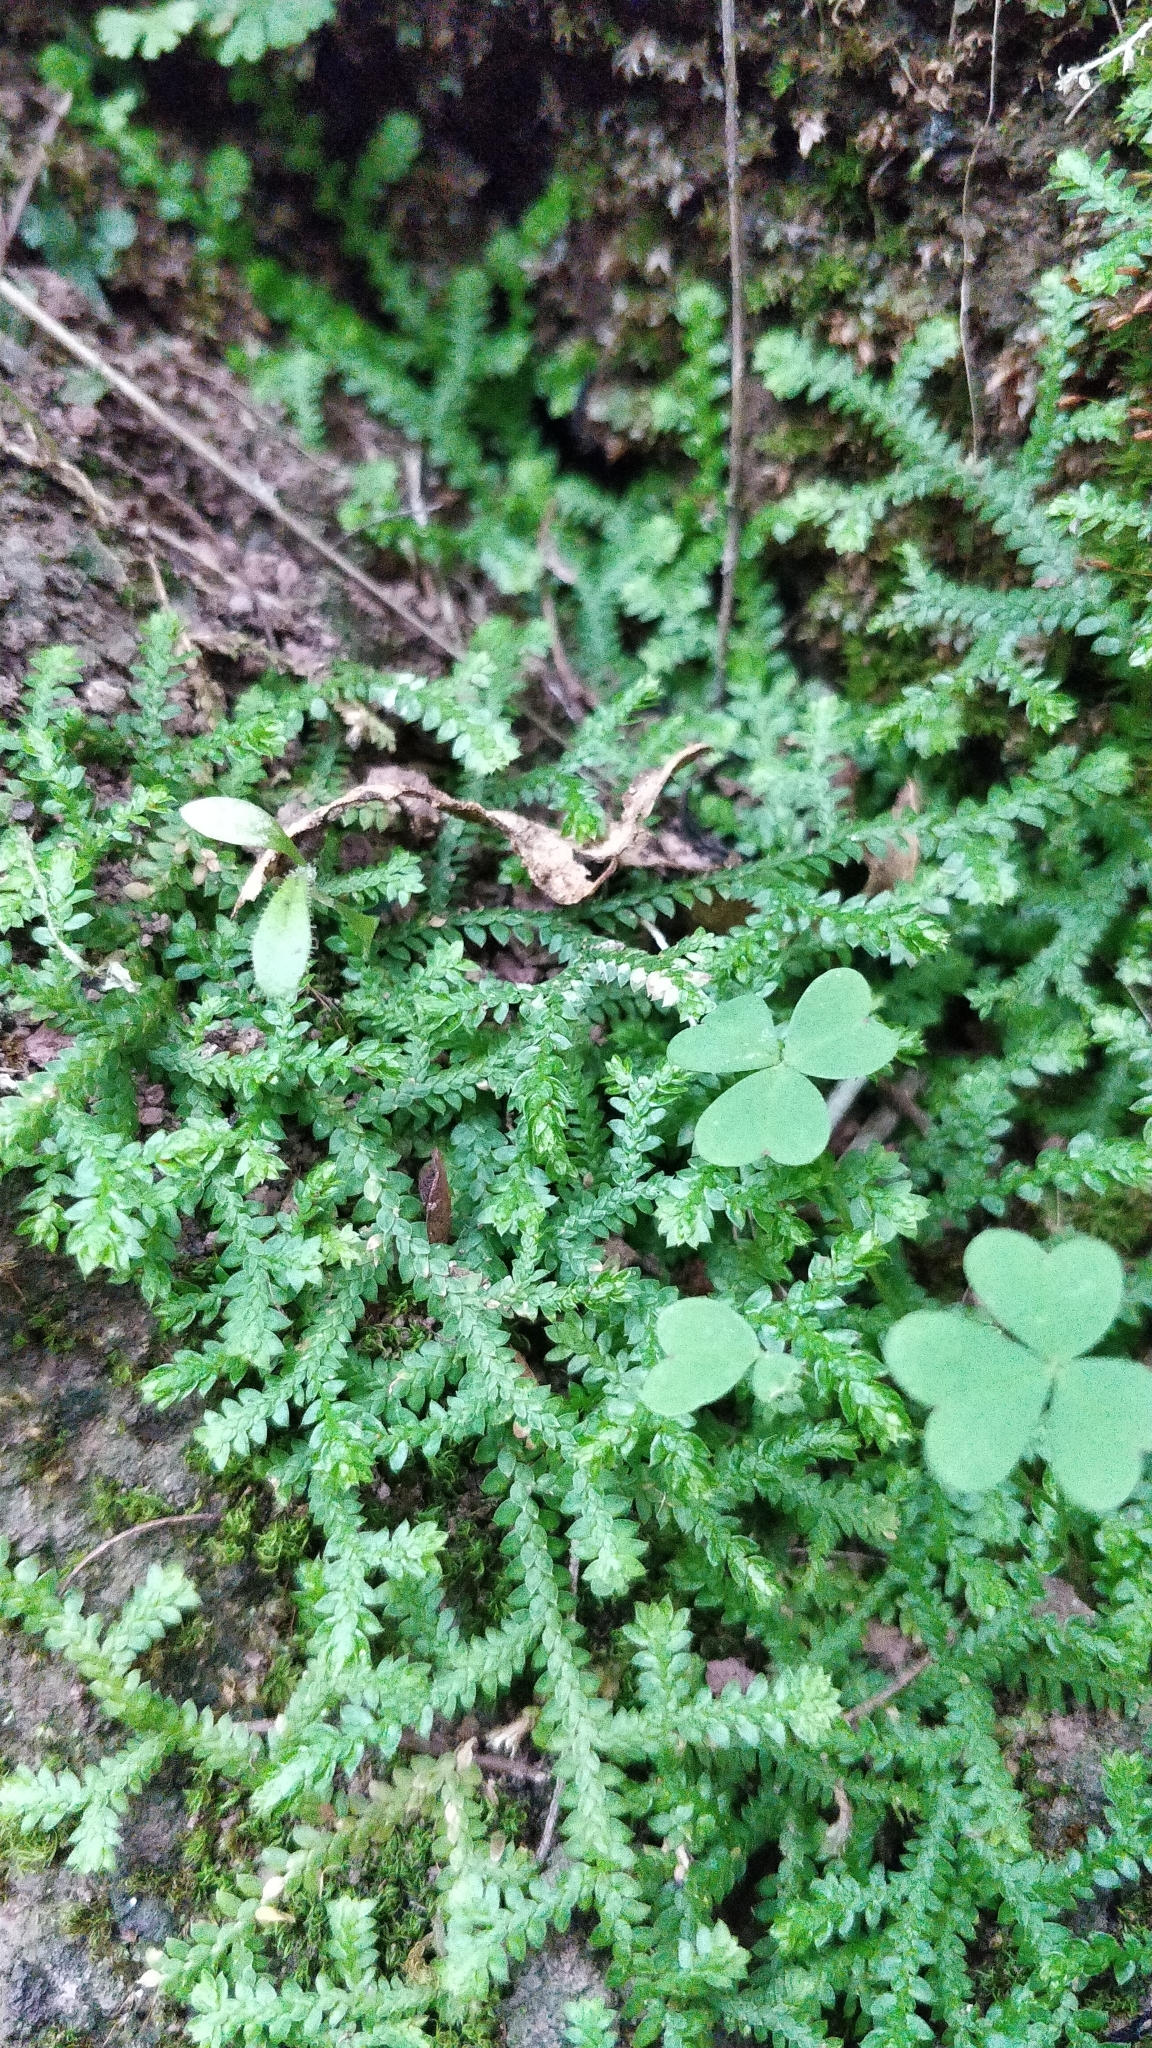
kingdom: Plantae
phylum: Tracheophyta
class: Lycopodiopsida
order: Selaginellales
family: Selaginellaceae
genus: Selaginella
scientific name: Selaginella denticulata
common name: Toothed-leaved clubmoss
